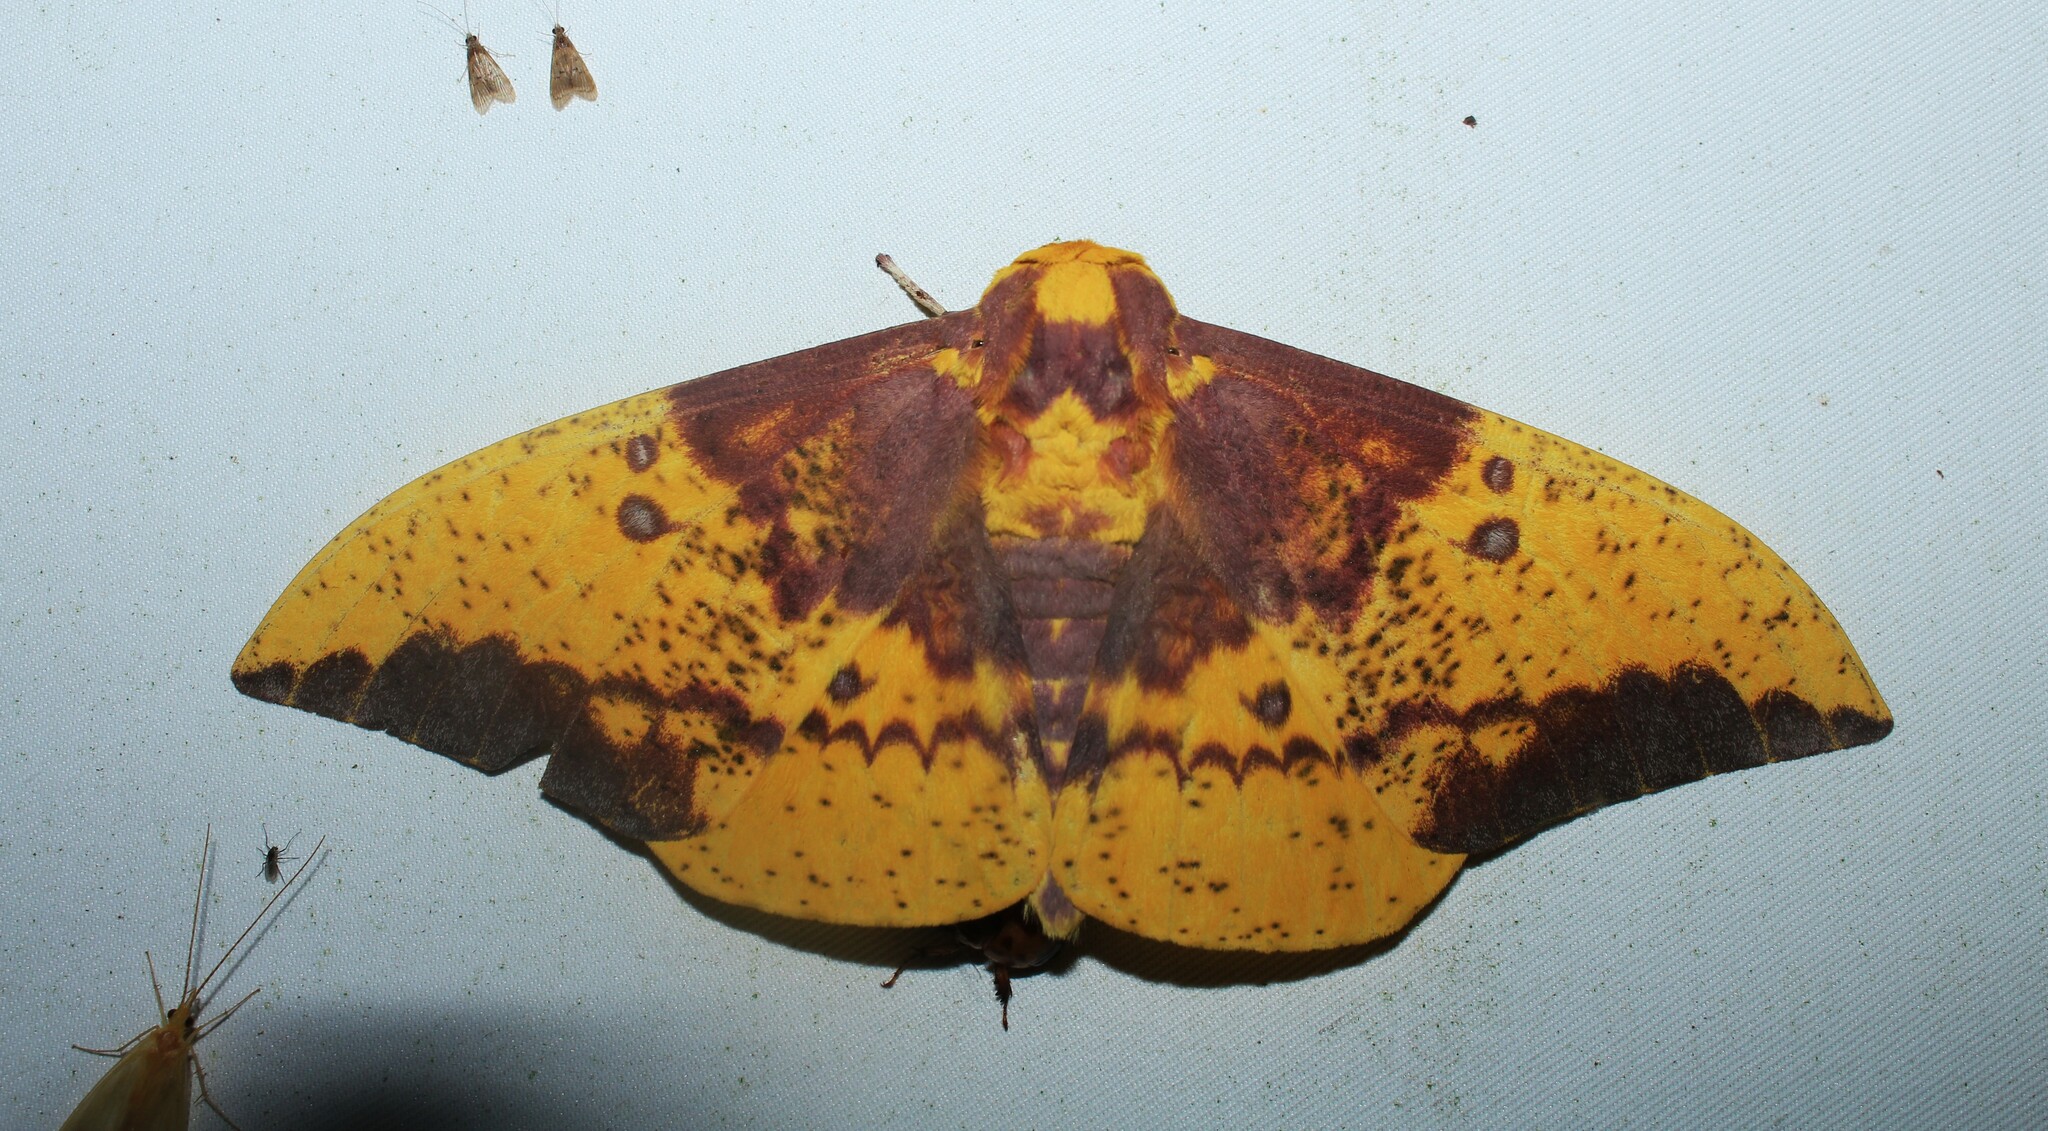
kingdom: Animalia
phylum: Arthropoda
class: Insecta
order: Lepidoptera
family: Saturniidae
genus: Eacles
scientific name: Eacles imperialis
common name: Imperial moth
